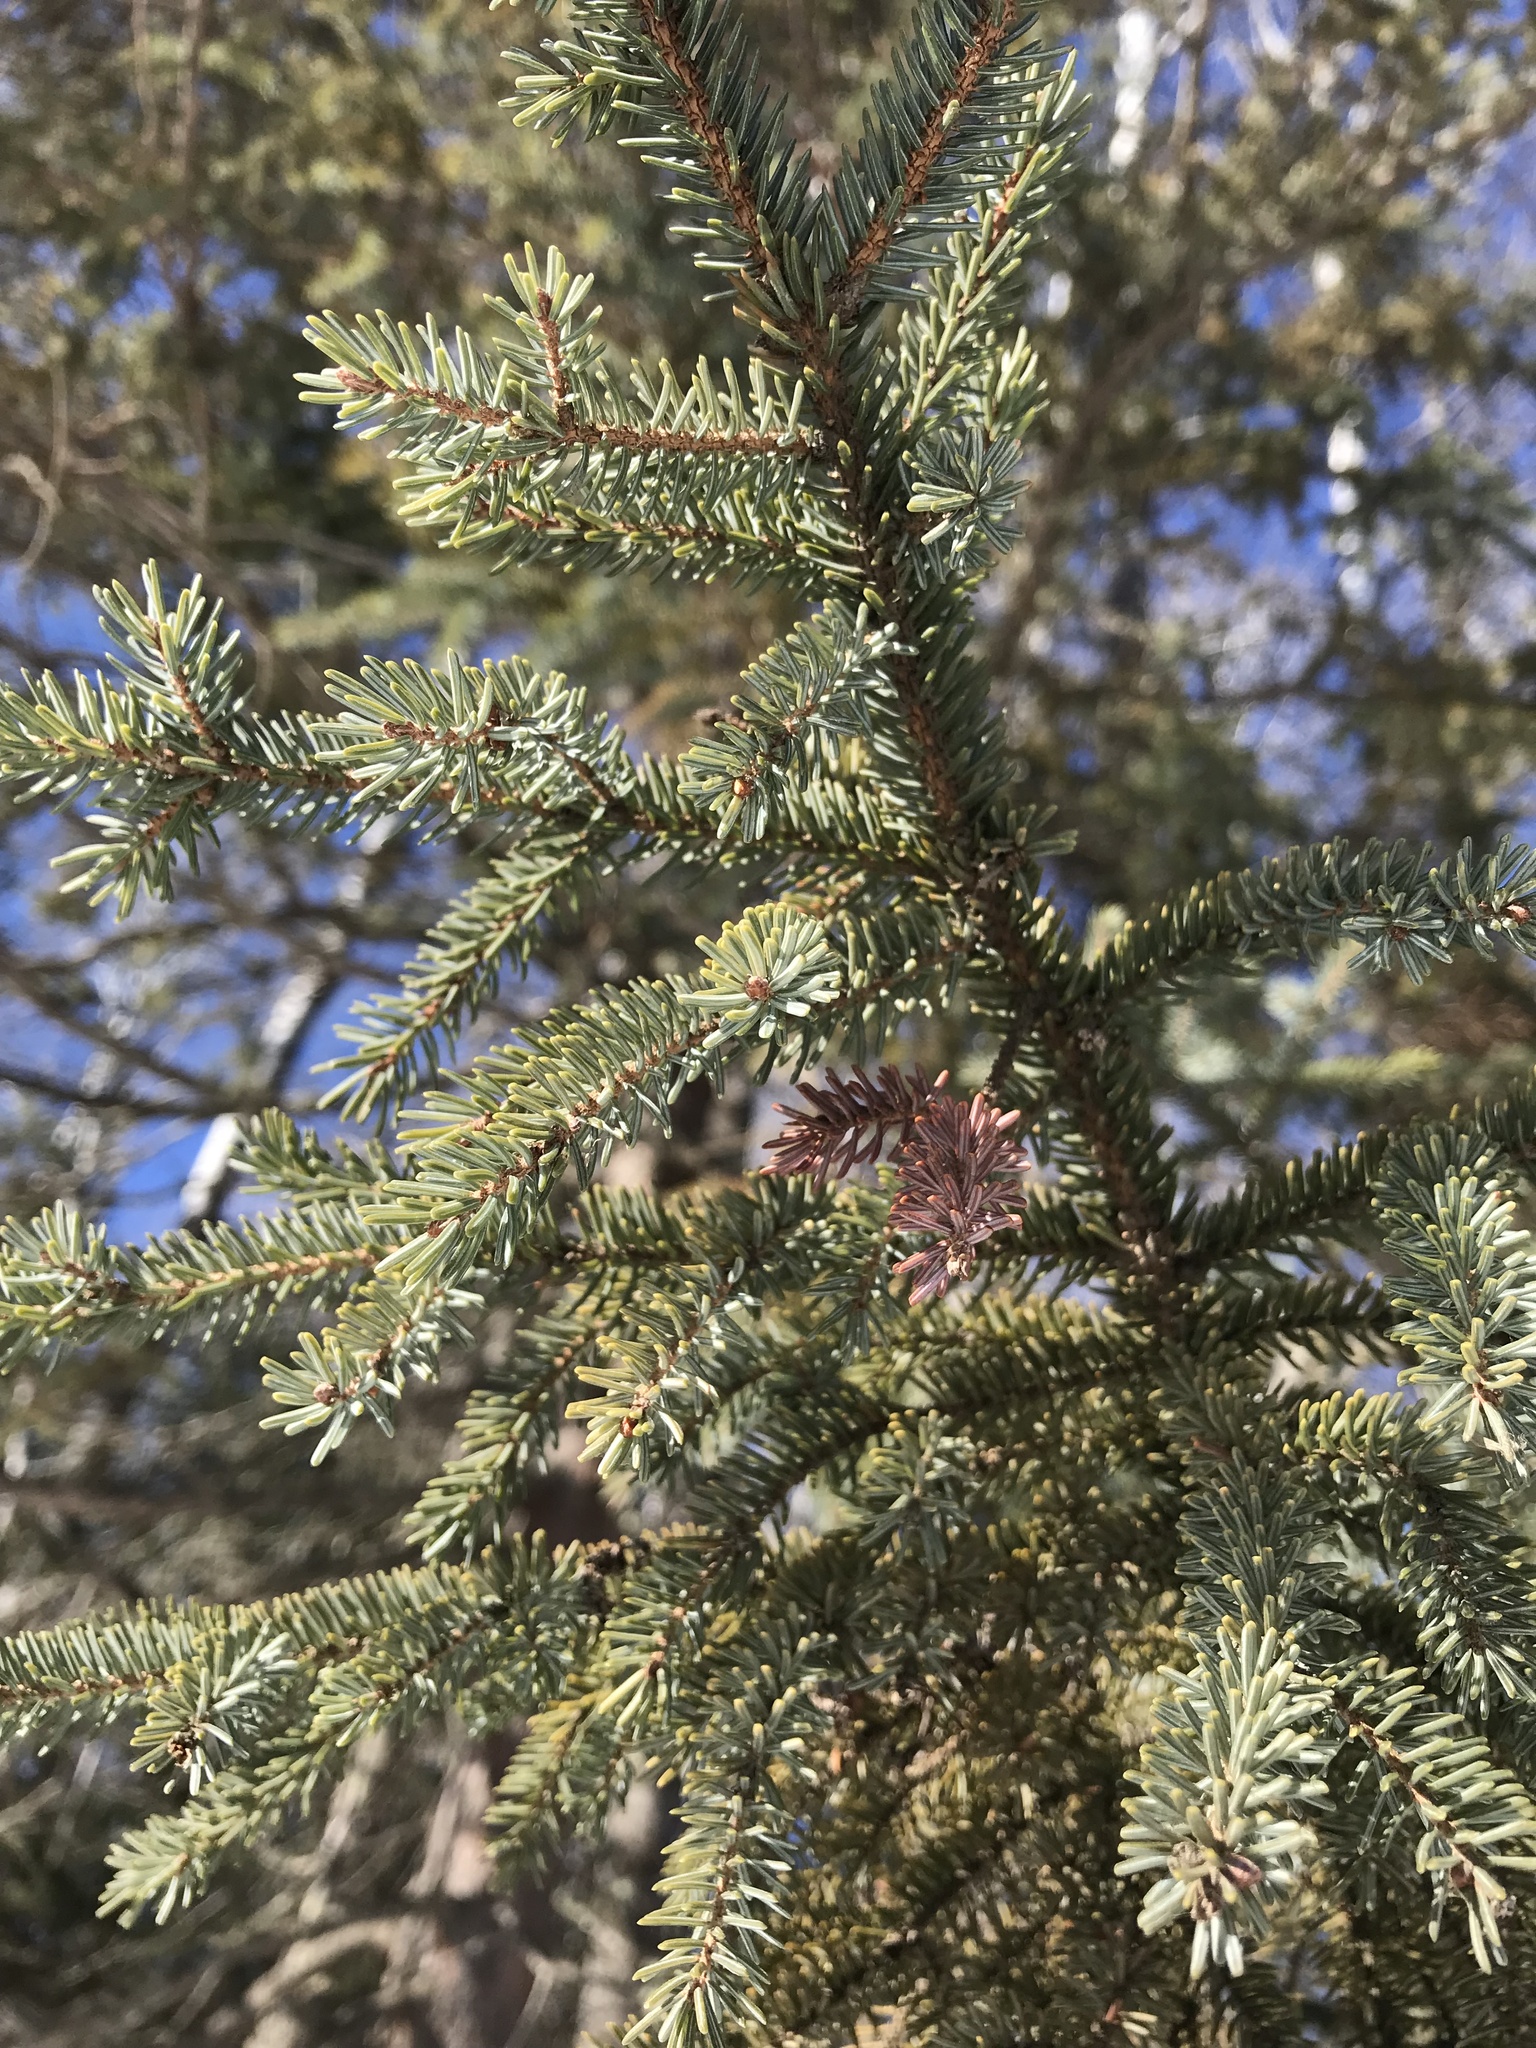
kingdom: Plantae
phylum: Tracheophyta
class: Pinopsida
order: Pinales
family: Pinaceae
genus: Picea
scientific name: Picea mariana
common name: Black spruce
